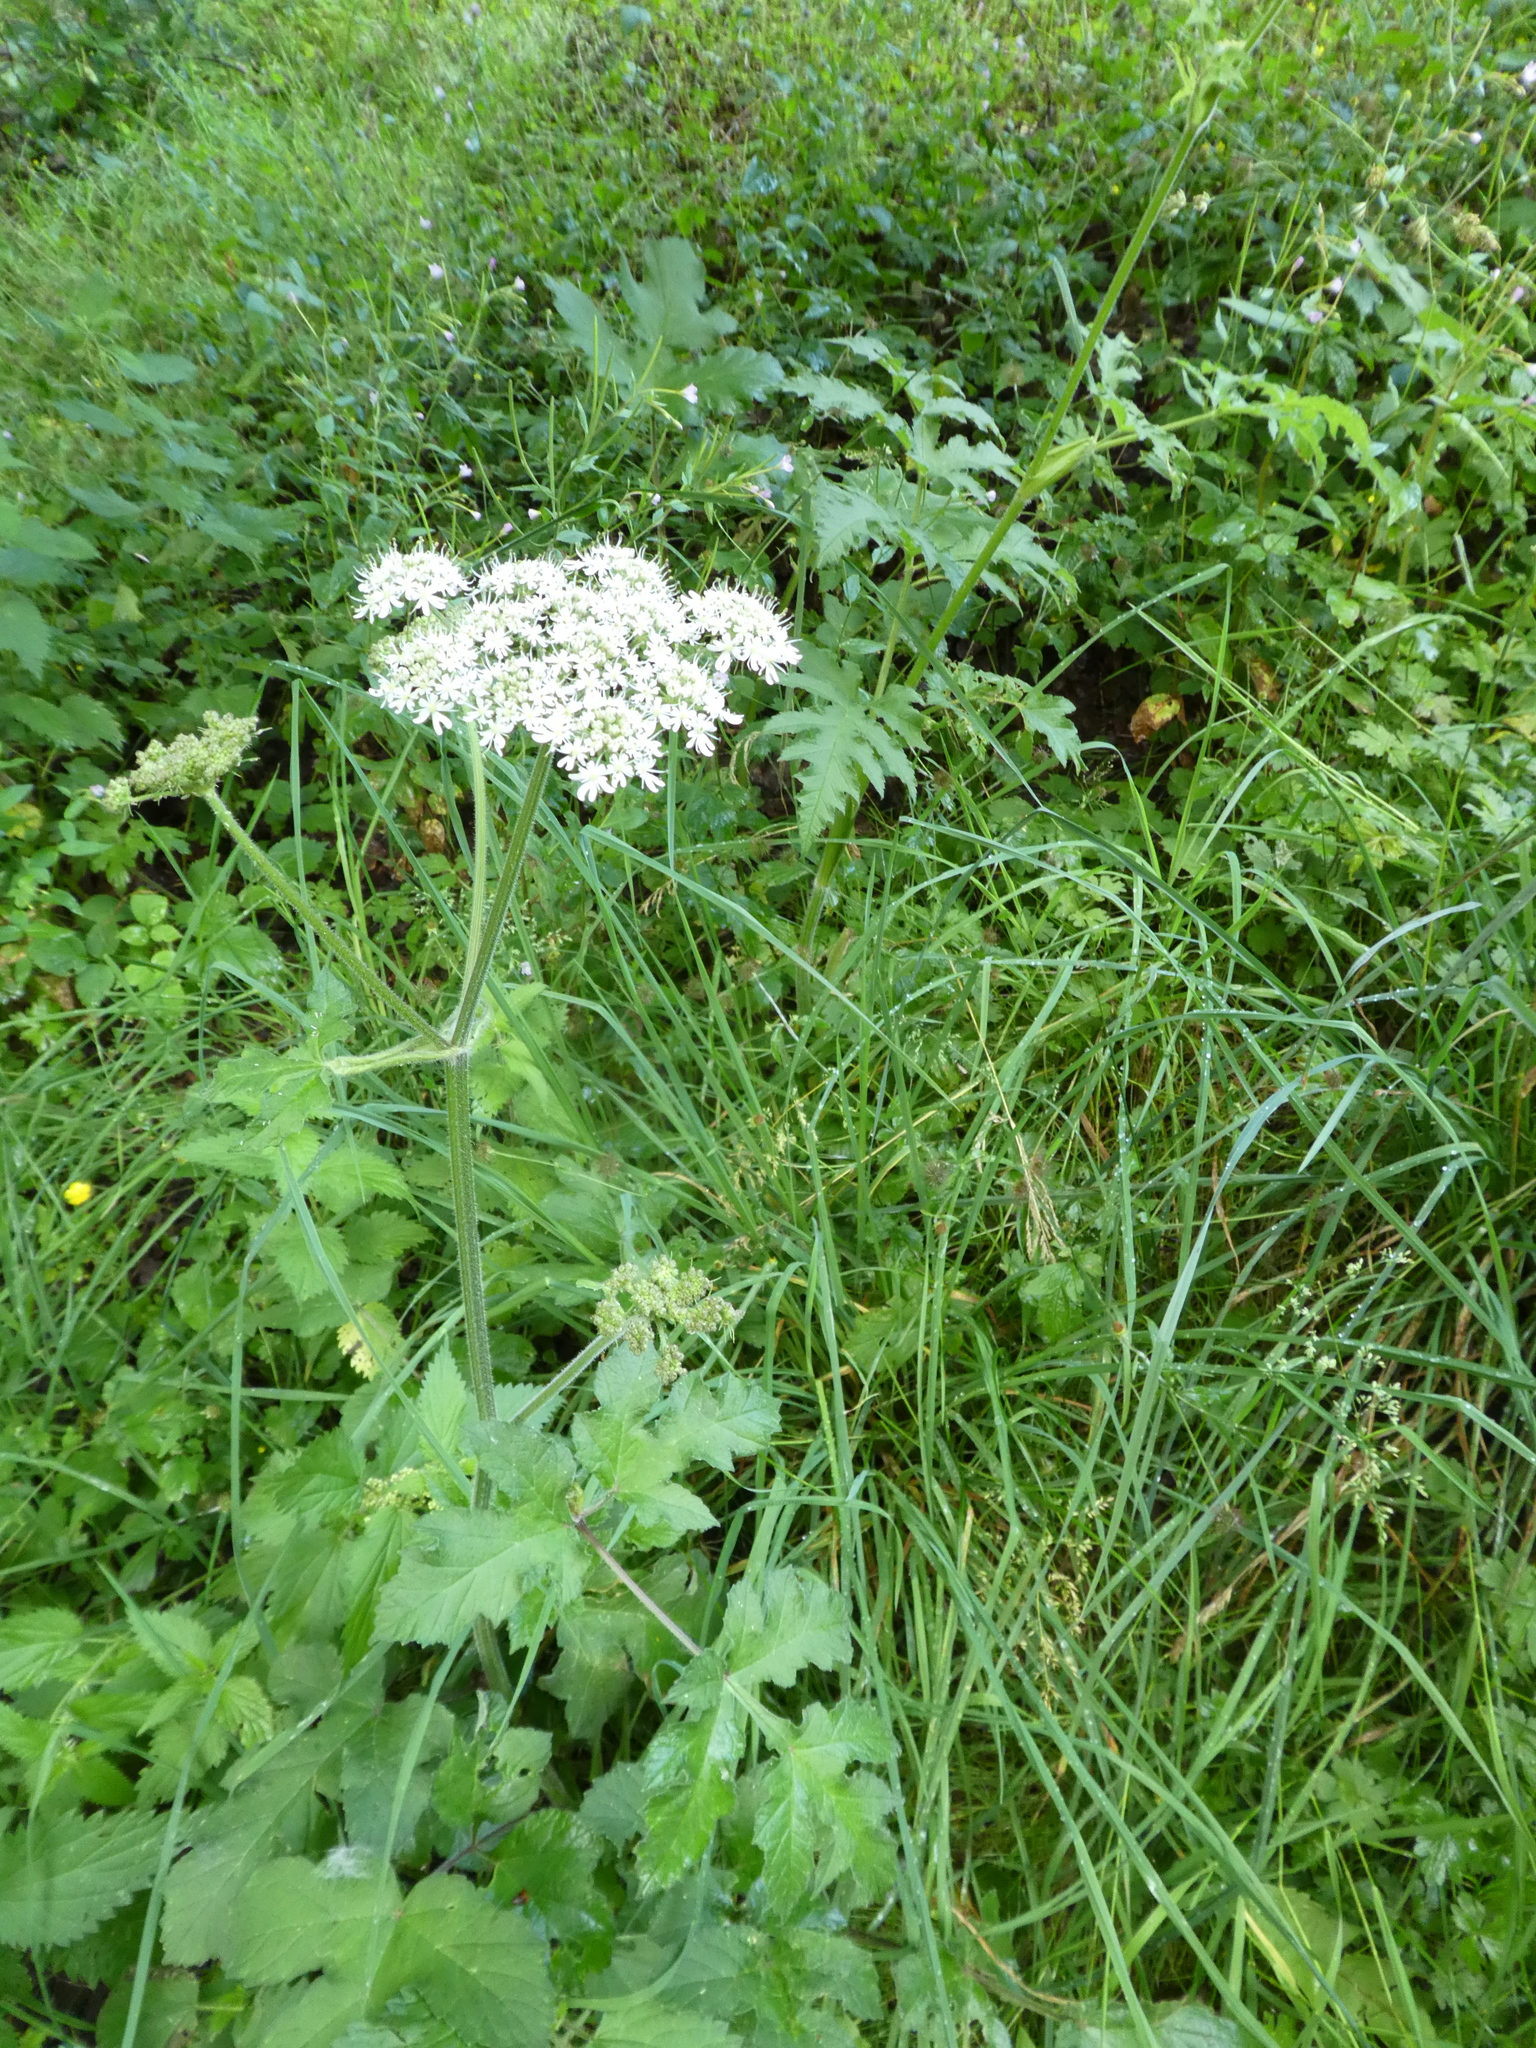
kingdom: Plantae
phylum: Tracheophyta
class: Magnoliopsida
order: Apiales
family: Apiaceae
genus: Heracleum
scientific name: Heracleum sphondylium
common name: Hogweed
